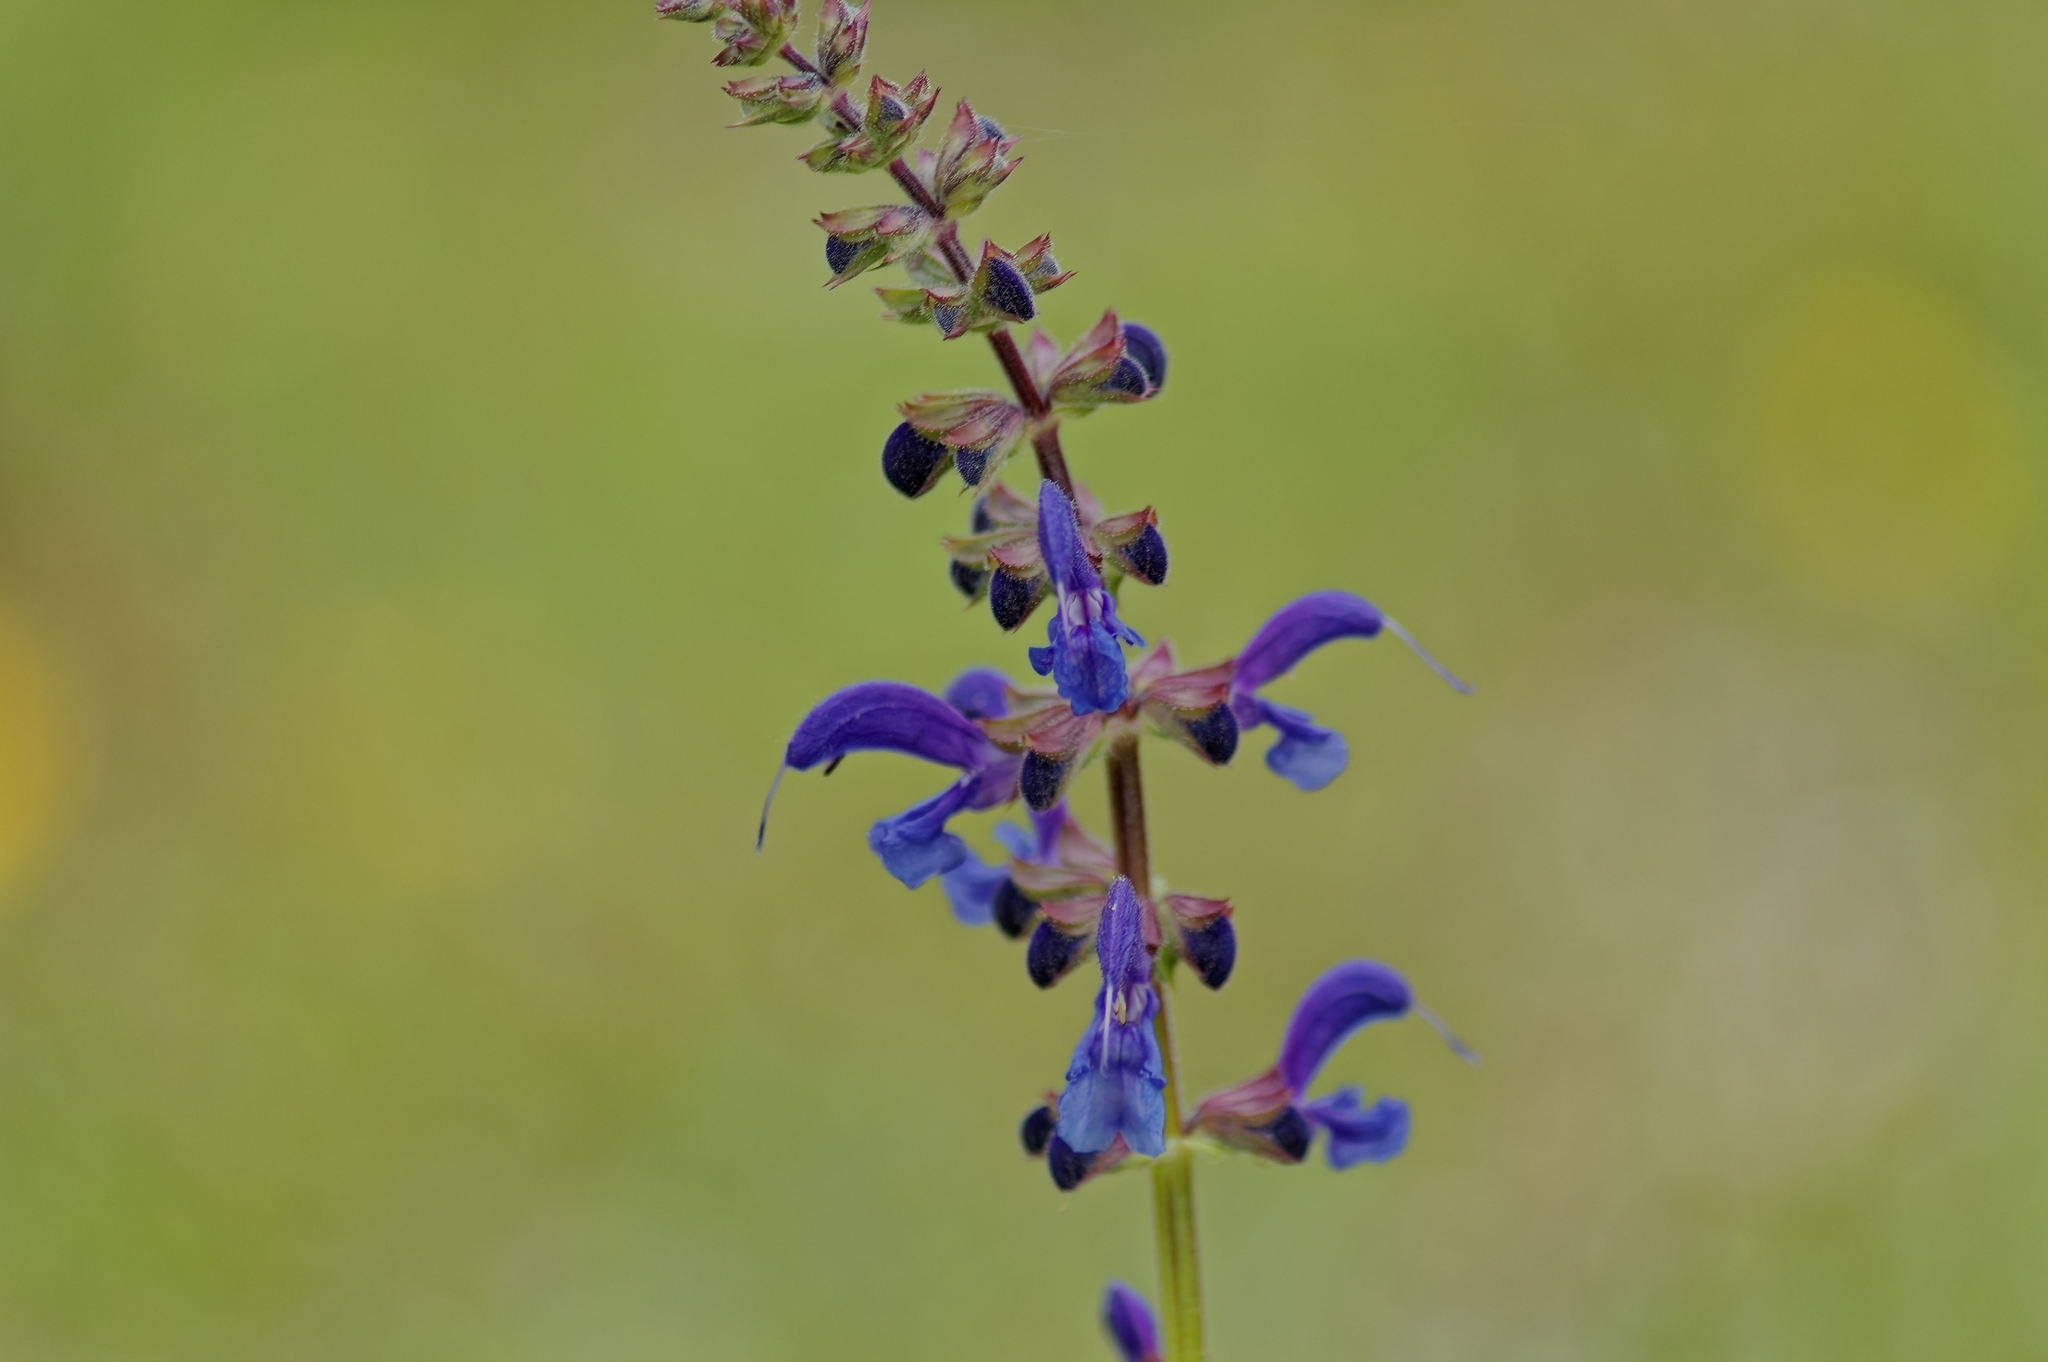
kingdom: Plantae
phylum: Tracheophyta
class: Magnoliopsida
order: Lamiales
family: Lamiaceae
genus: Salvia
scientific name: Salvia pratensis
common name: Meadow sage
